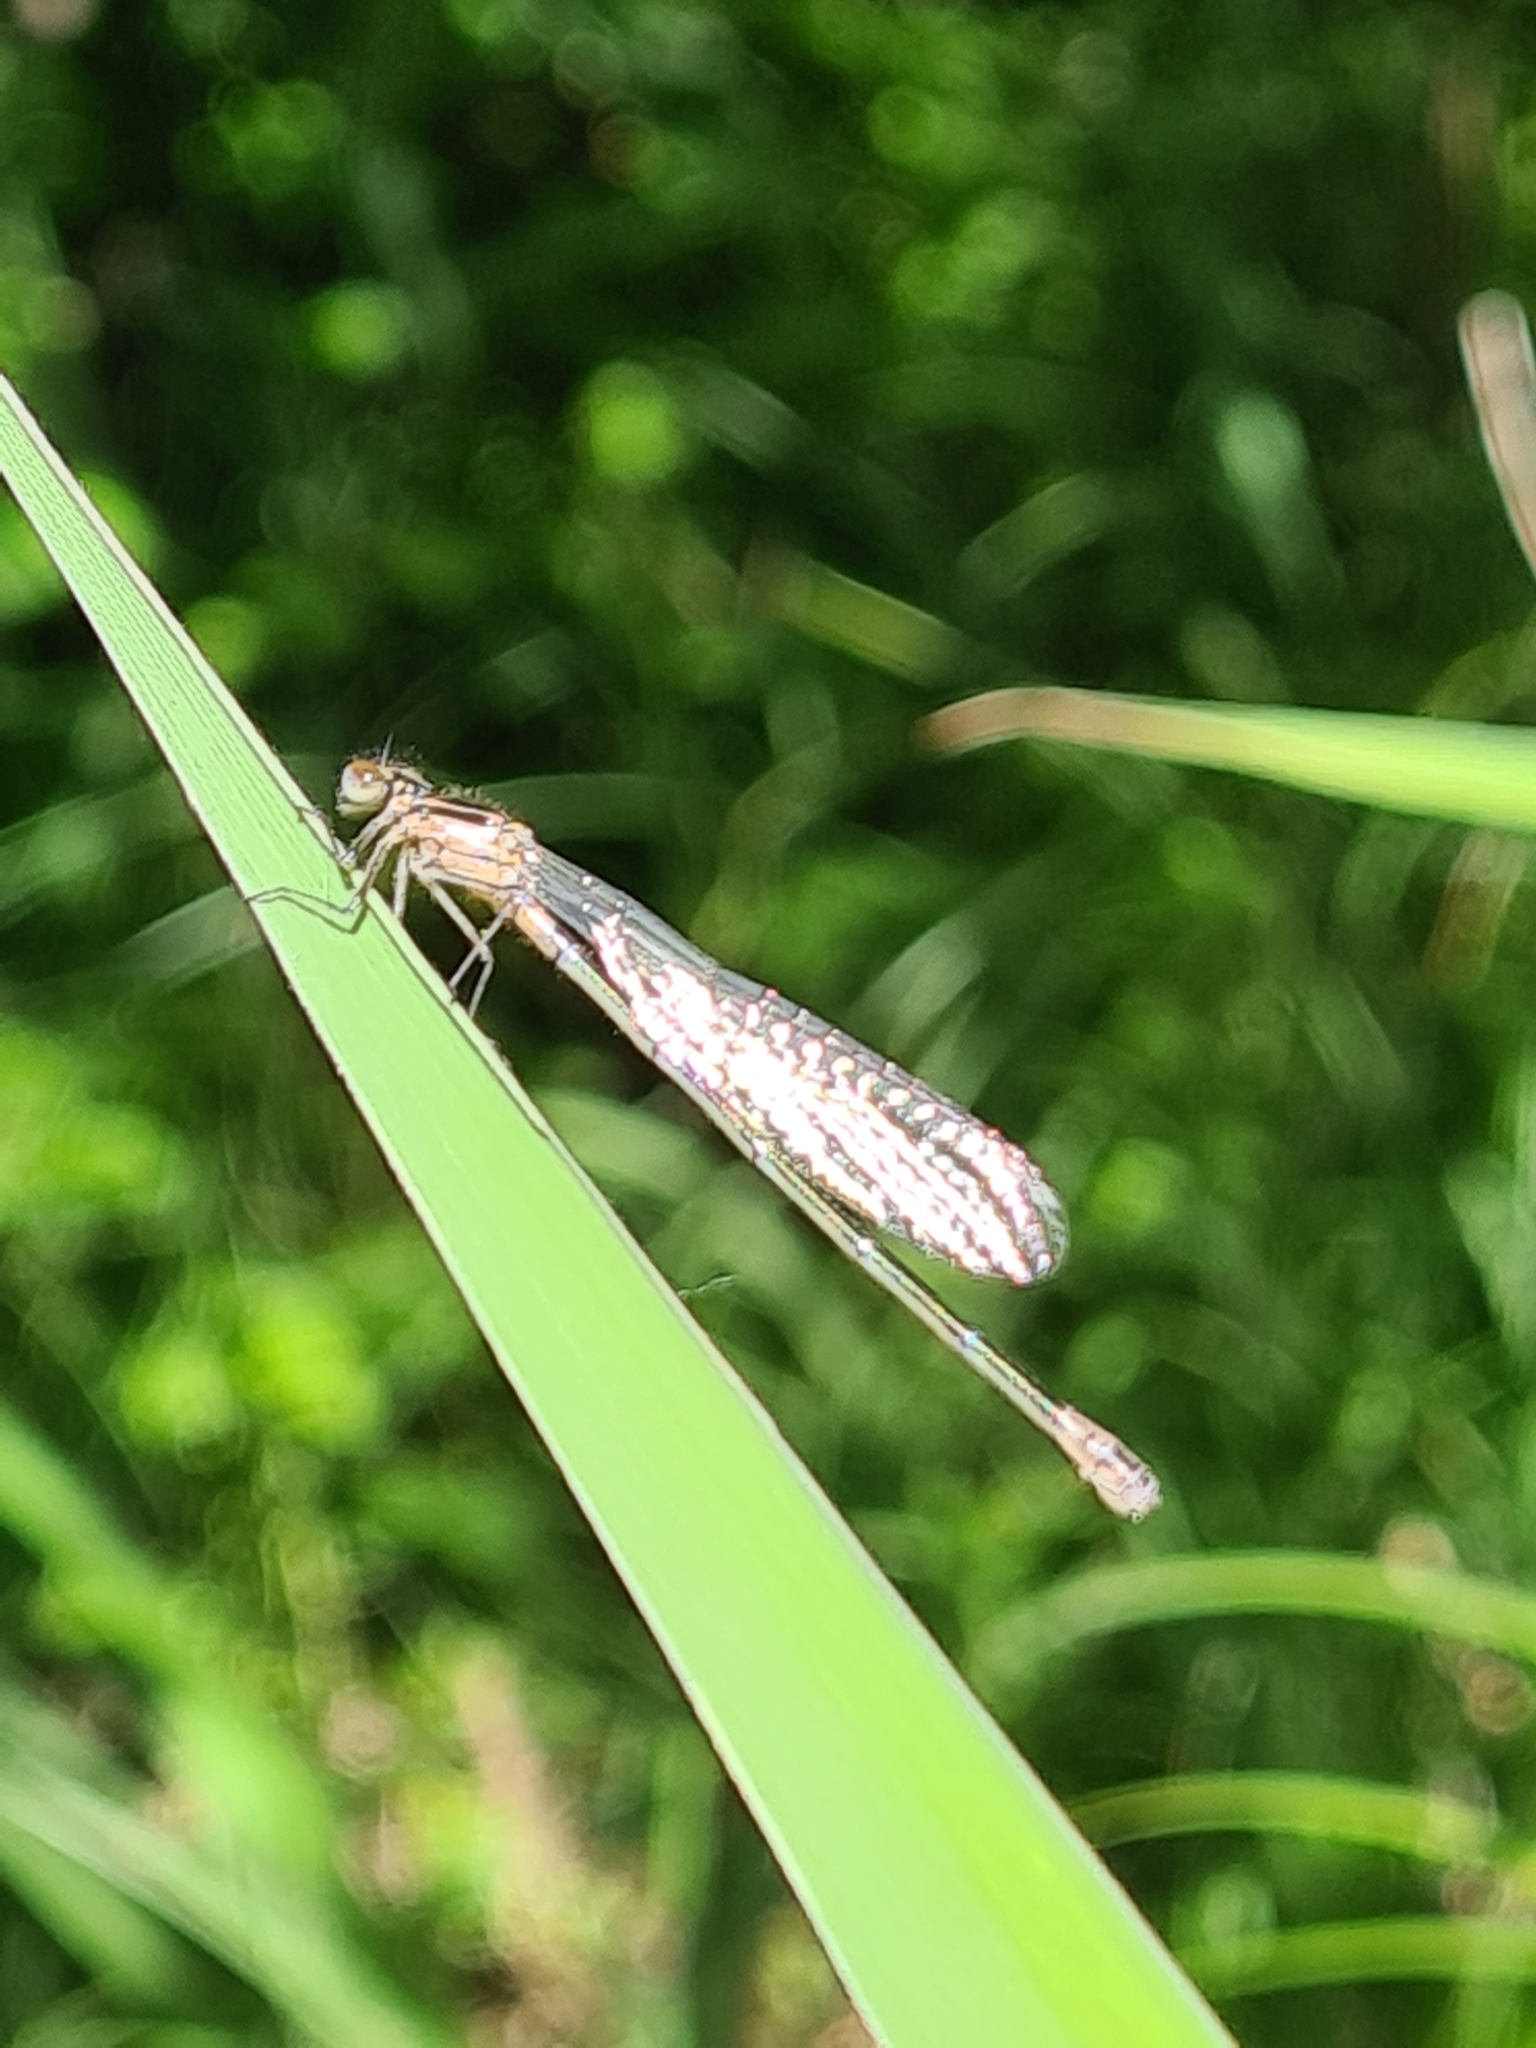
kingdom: Animalia
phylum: Arthropoda
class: Insecta
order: Odonata
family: Coenagrionidae
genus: Ischnura
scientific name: Ischnura elegans
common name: Blue-tailed damselfly
